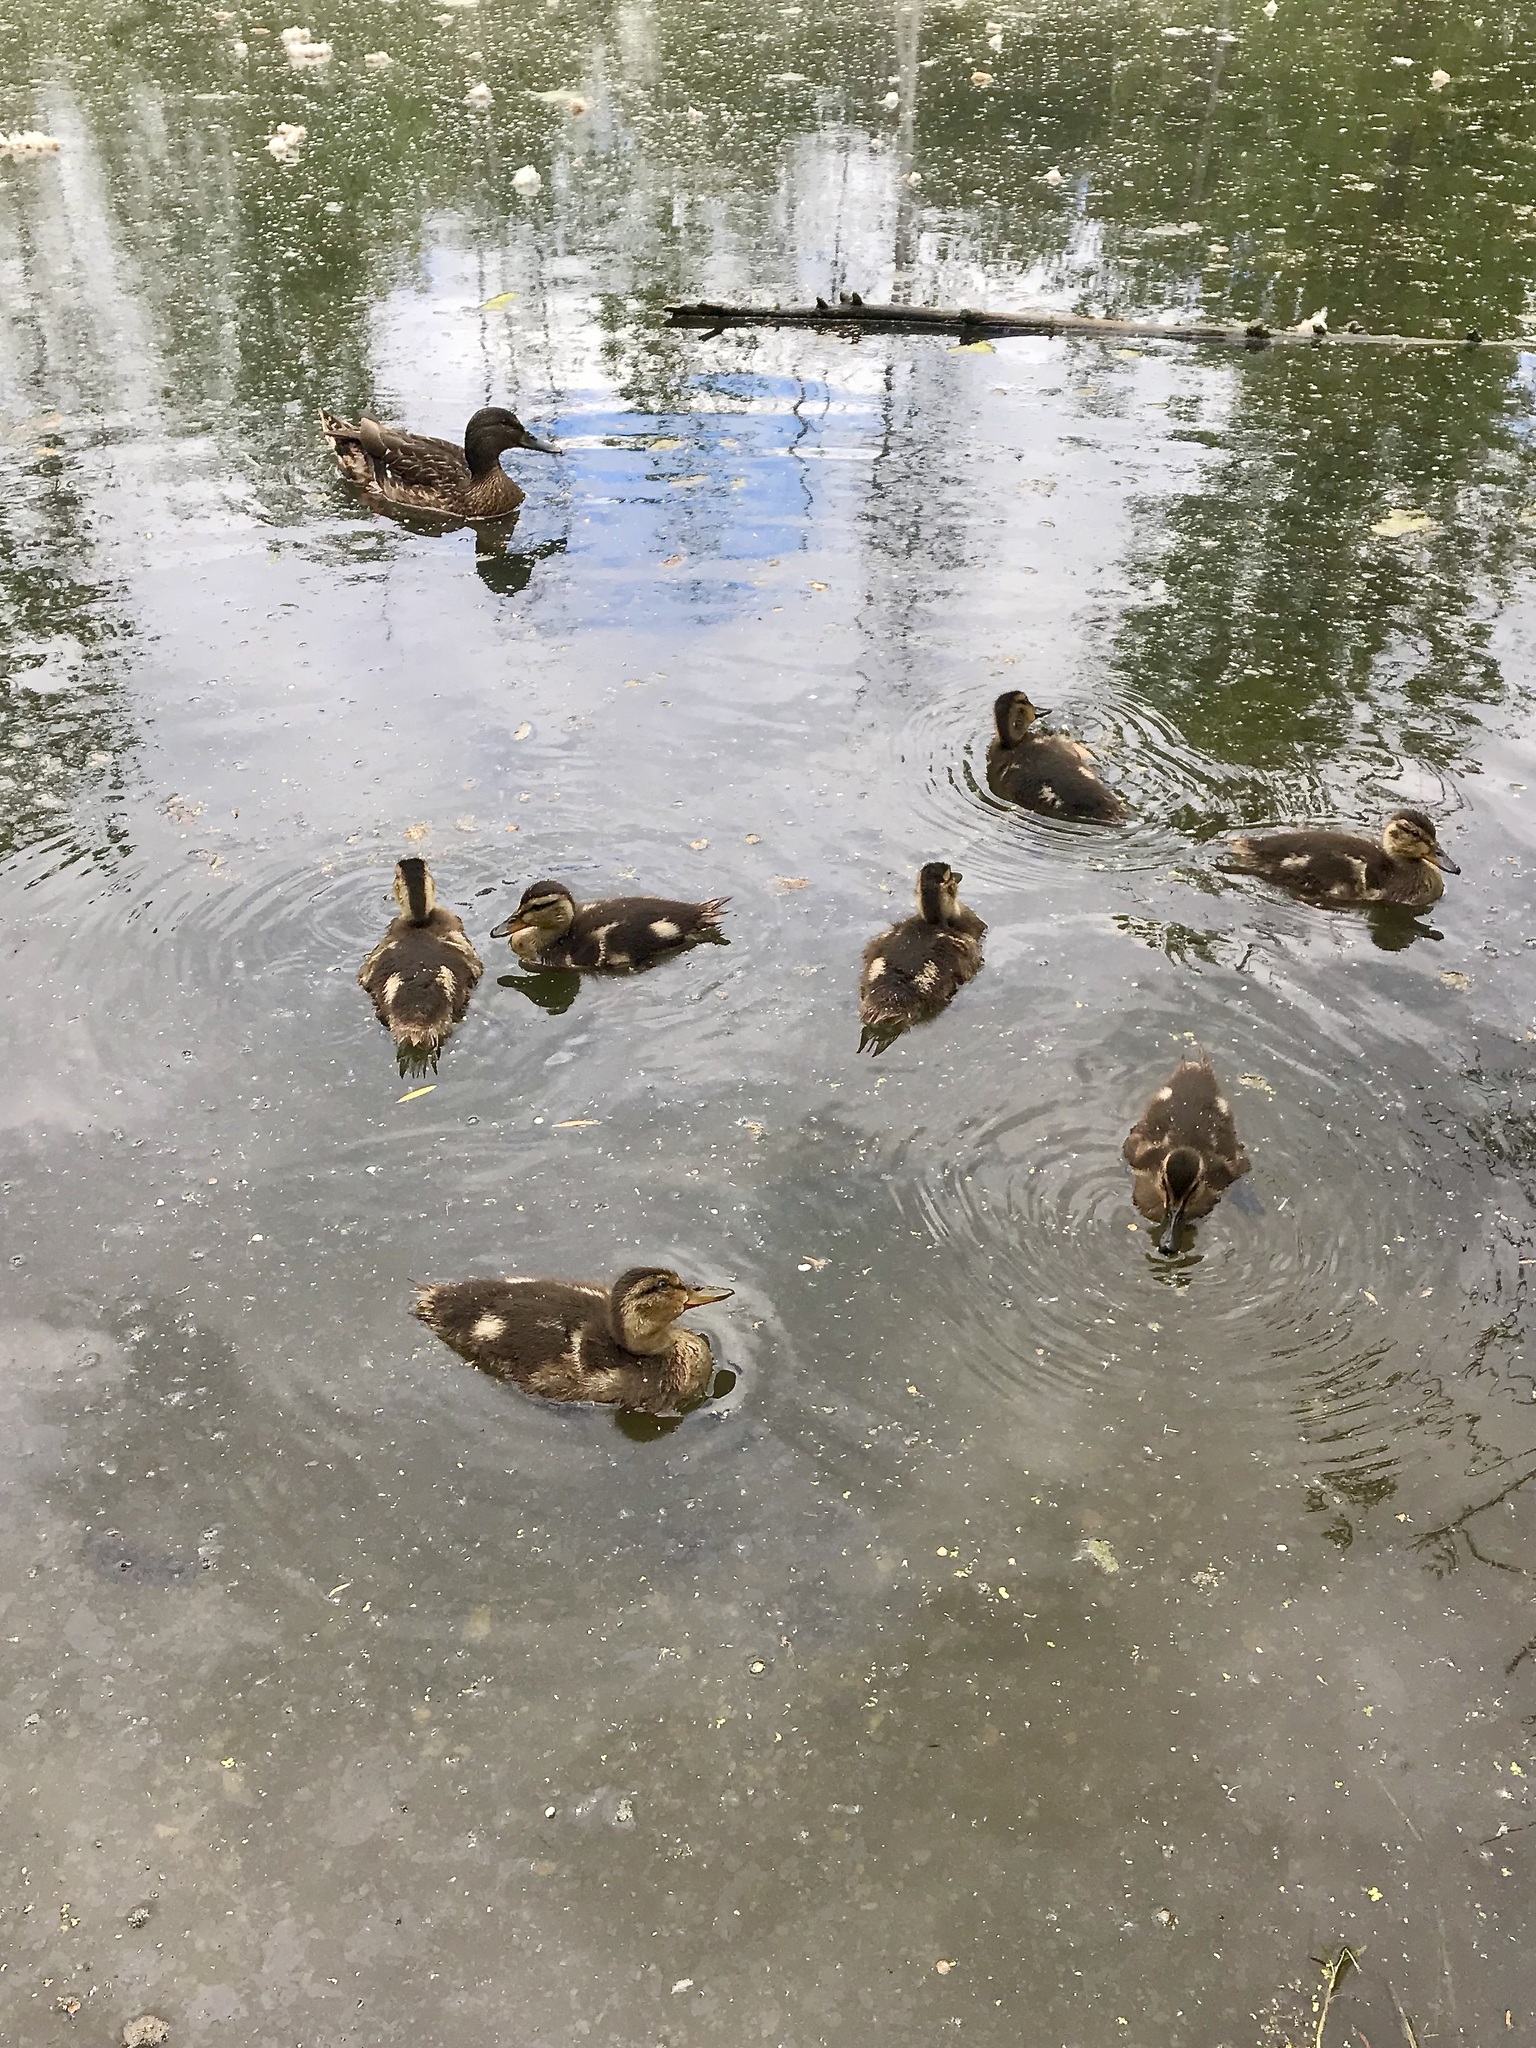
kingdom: Animalia
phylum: Chordata
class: Aves
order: Anseriformes
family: Anatidae
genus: Anas
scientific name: Anas platyrhynchos
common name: Mallard
